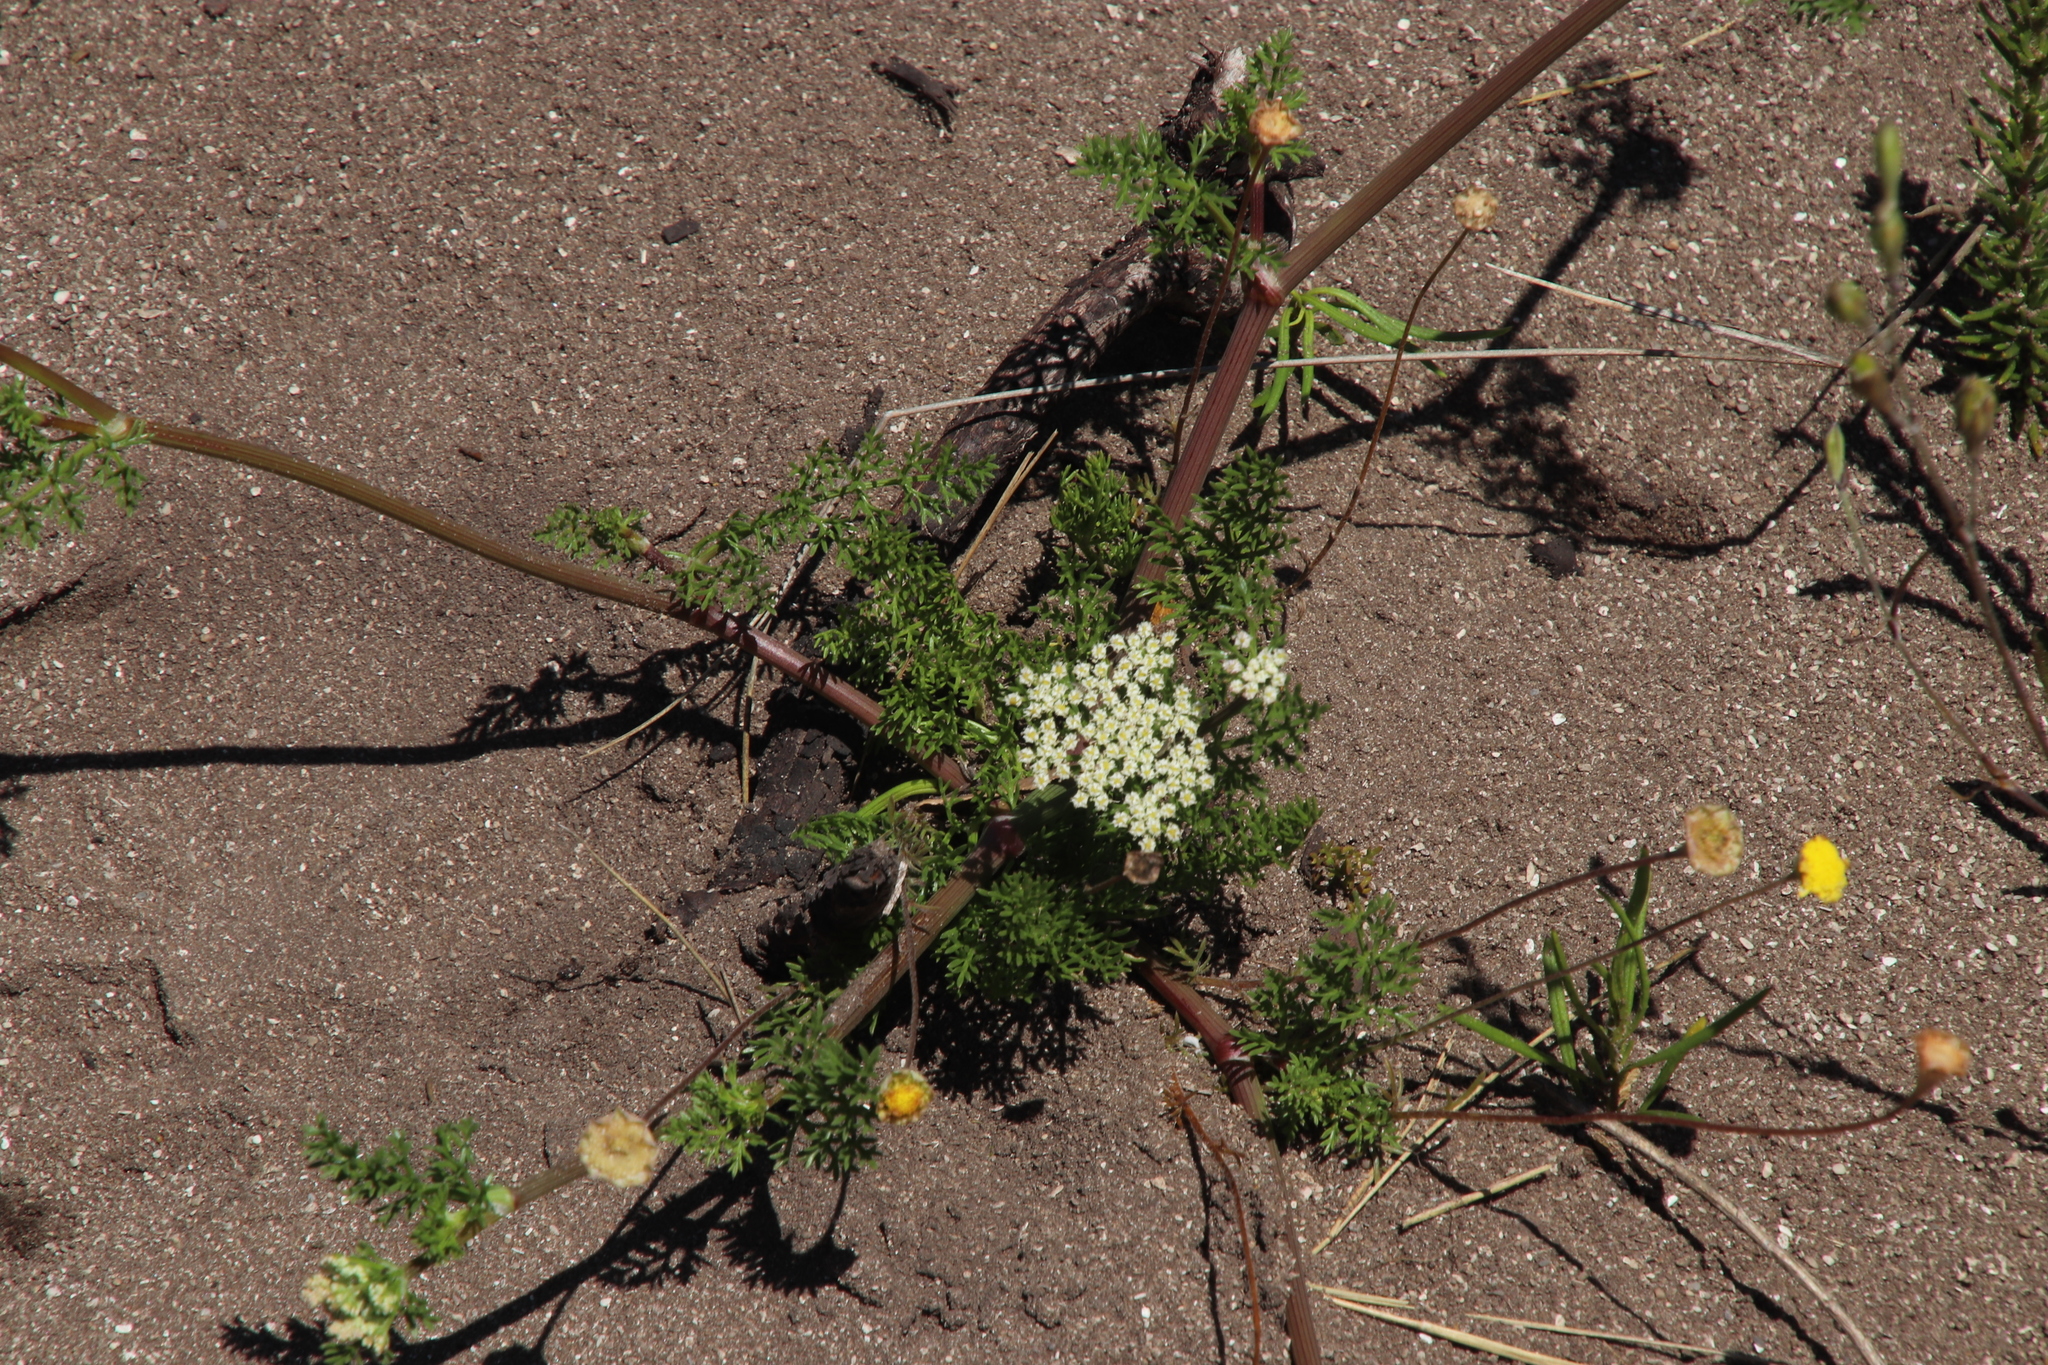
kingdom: Plantae
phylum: Tracheophyta
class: Magnoliopsida
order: Apiales
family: Apiaceae
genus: Capnophyllum
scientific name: Capnophyllum lutzeyeri
